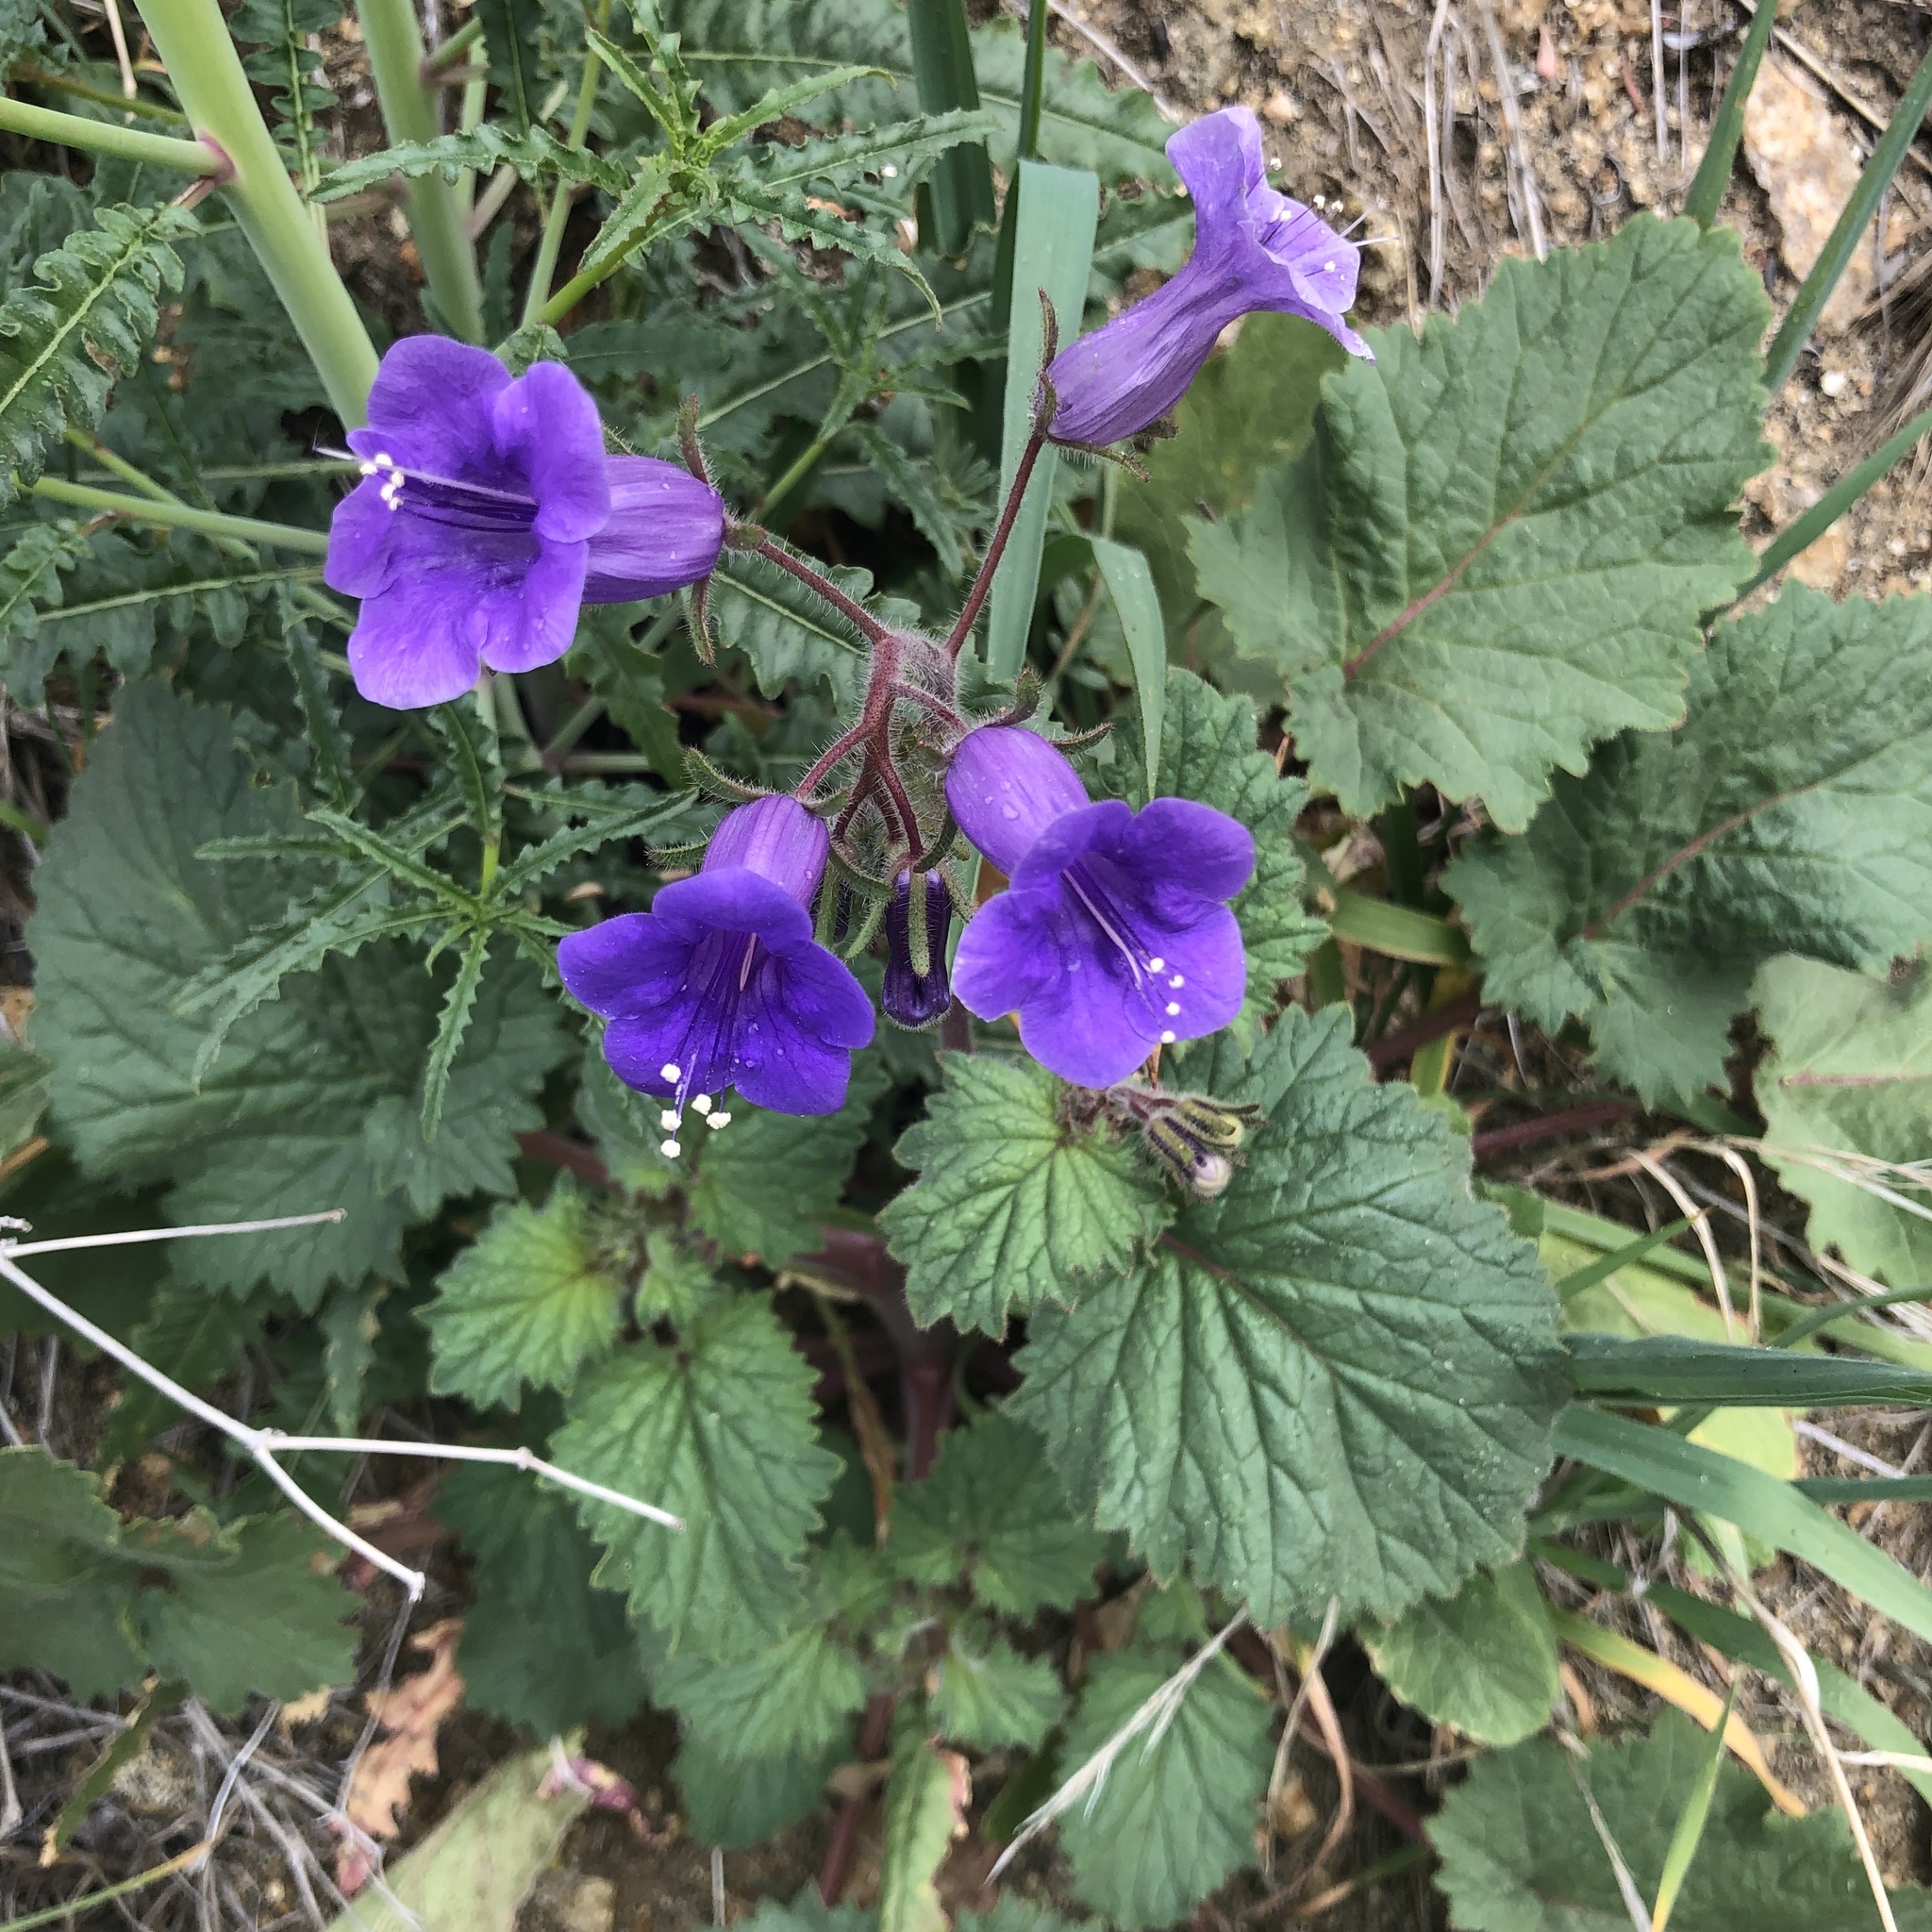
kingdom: Plantae
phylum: Tracheophyta
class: Magnoliopsida
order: Boraginales
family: Hydrophyllaceae
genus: Phacelia
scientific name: Phacelia minor
